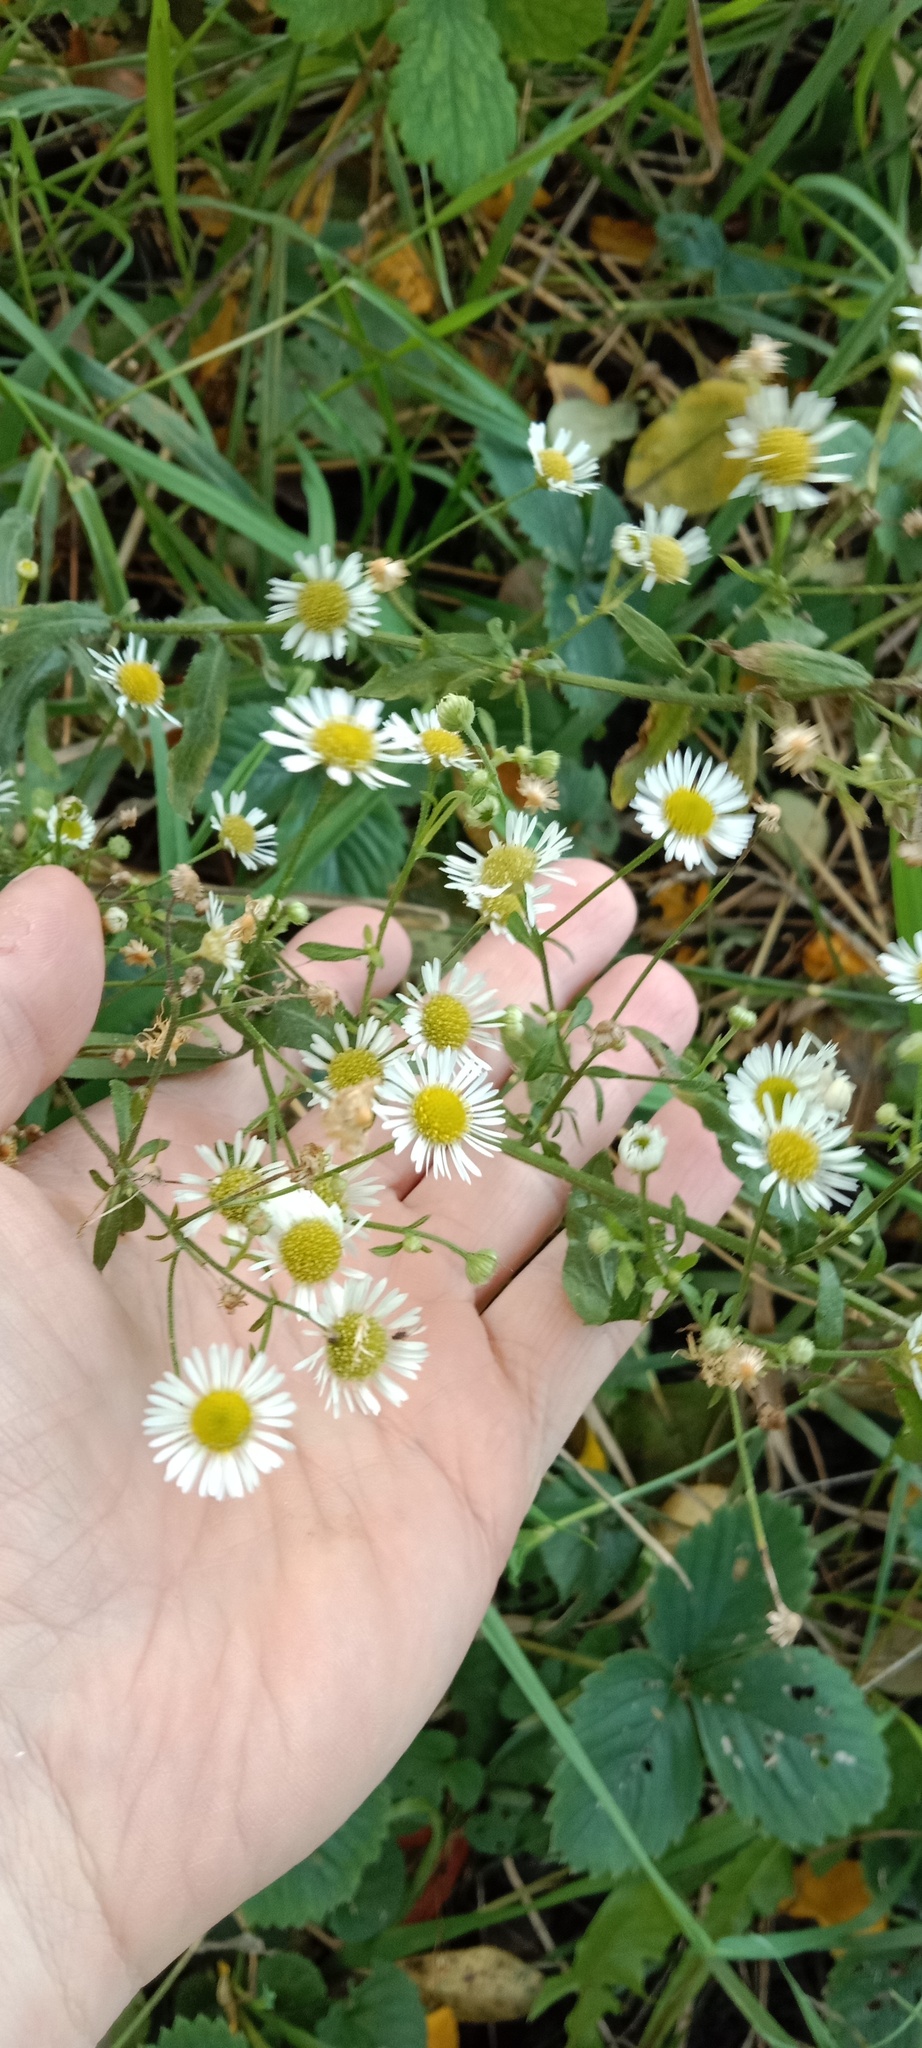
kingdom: Plantae
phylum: Tracheophyta
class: Magnoliopsida
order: Asterales
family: Asteraceae
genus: Erigeron
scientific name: Erigeron annuus
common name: Tall fleabane
